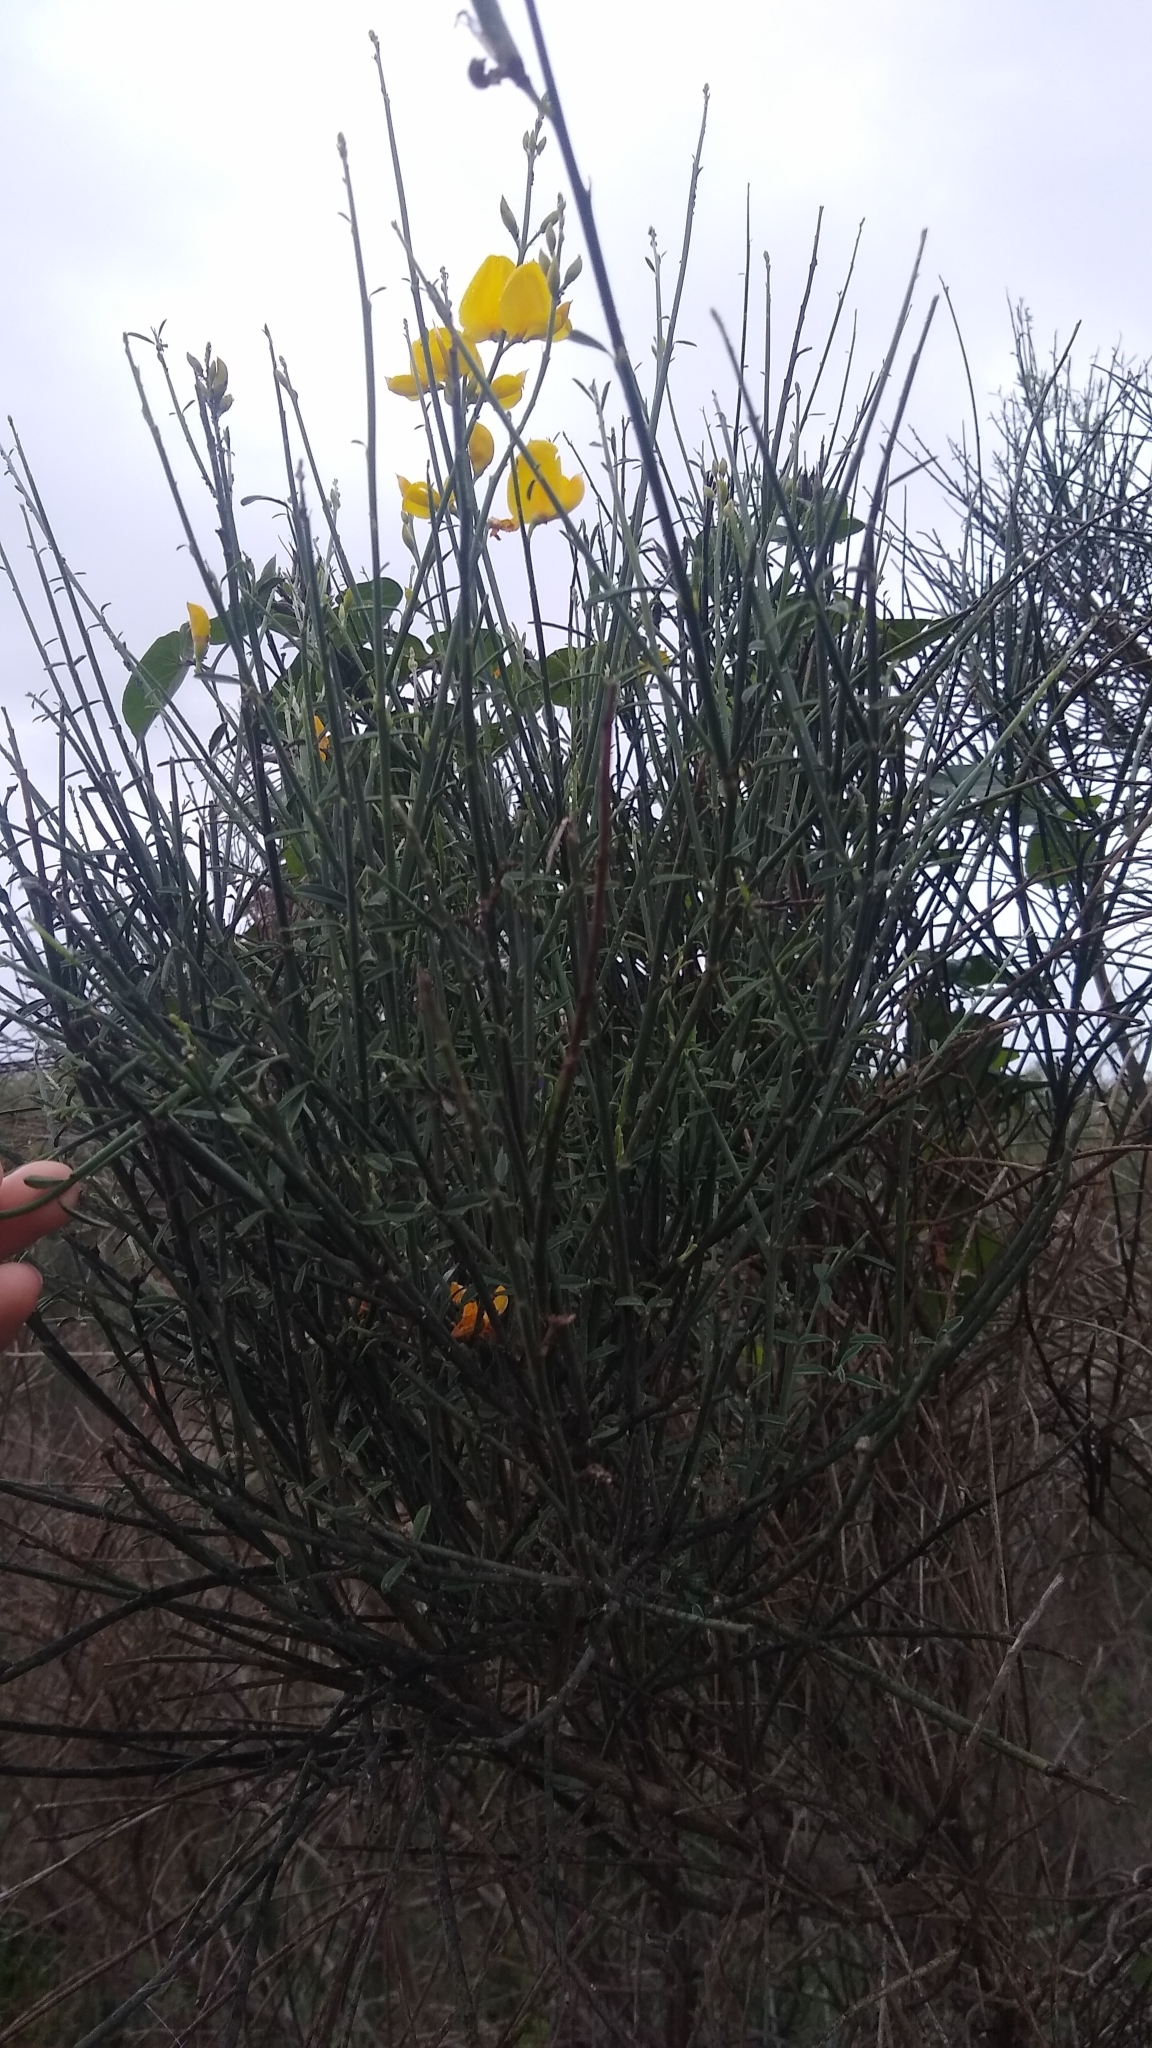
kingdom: Plantae
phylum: Tracheophyta
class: Magnoliopsida
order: Fabales
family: Fabaceae
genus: Spartium
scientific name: Spartium junceum
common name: Spanish broom
